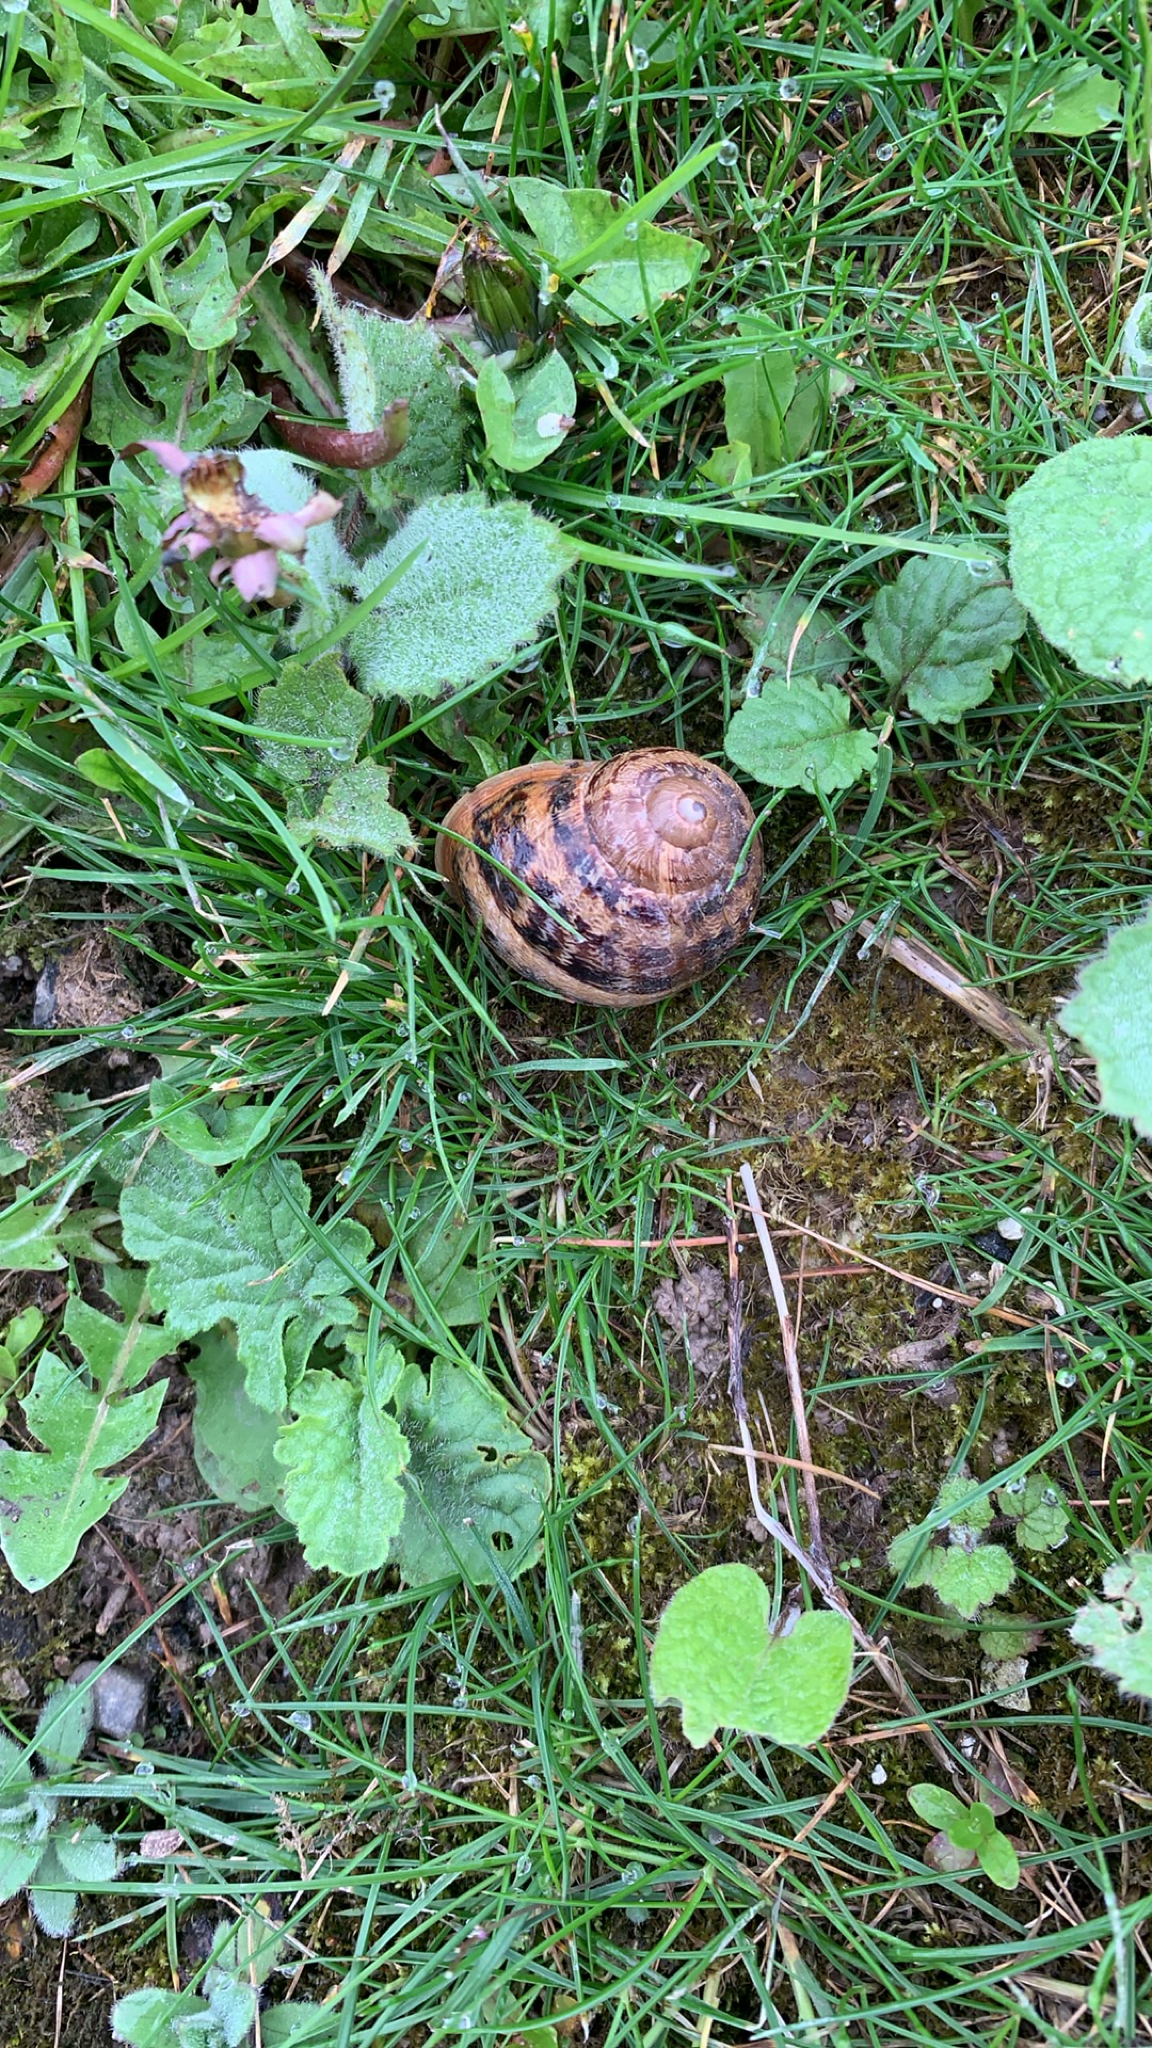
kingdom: Animalia
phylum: Mollusca
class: Gastropoda
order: Stylommatophora
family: Helicidae
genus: Cornu
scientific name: Cornu aspersum
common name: Brown garden snail
